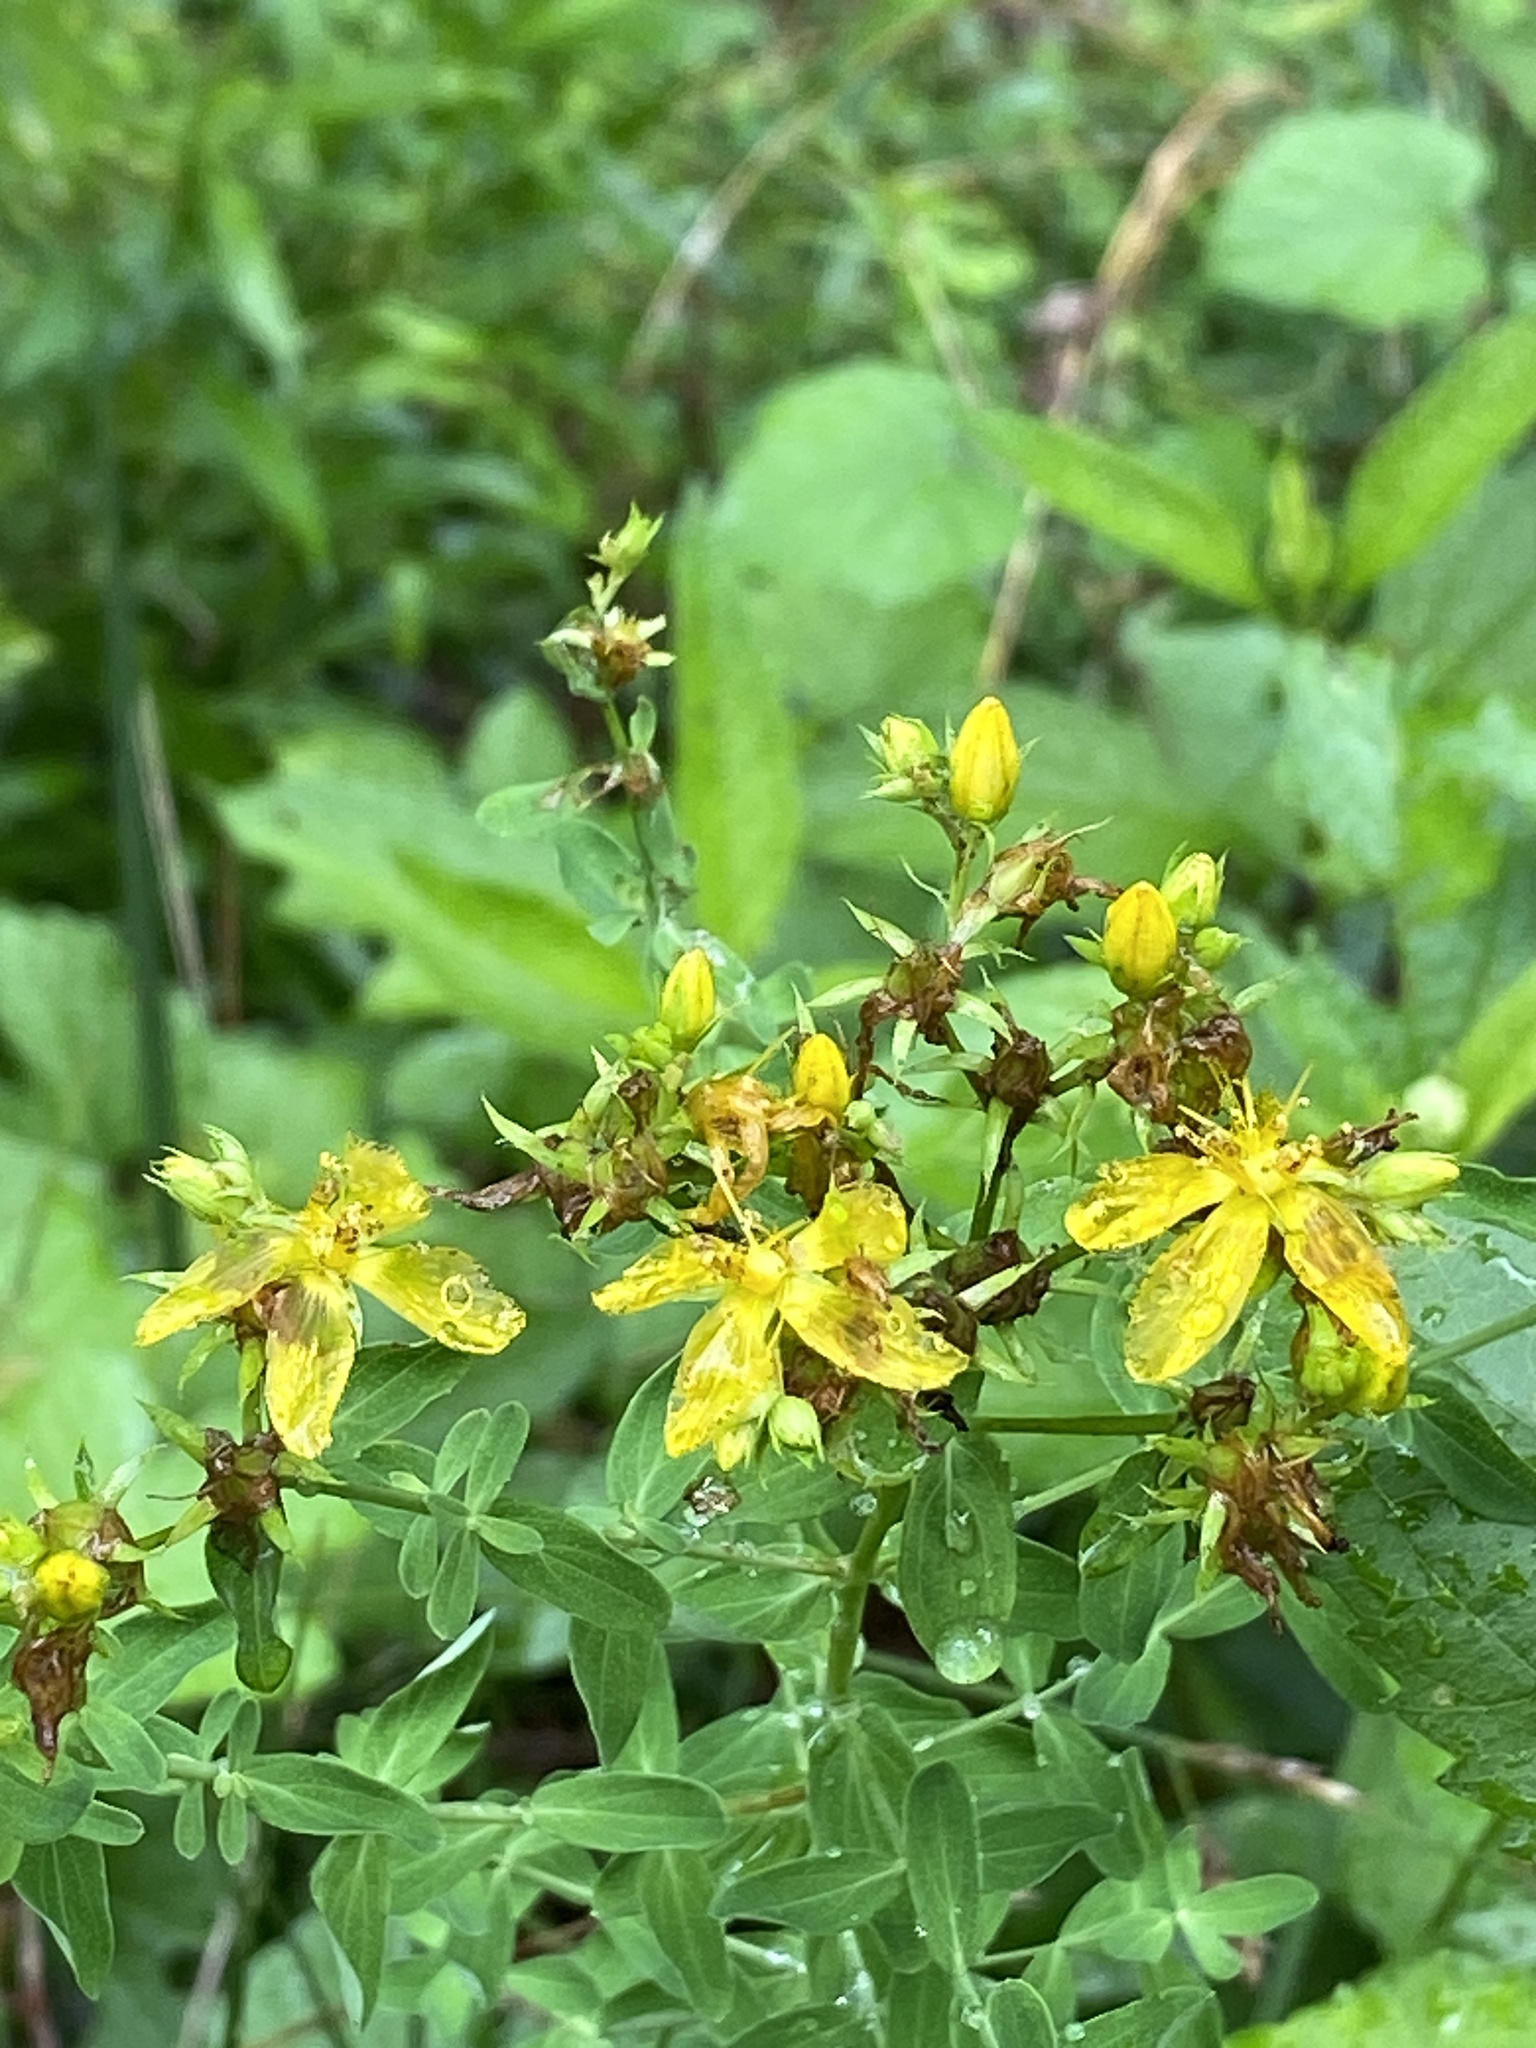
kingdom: Plantae
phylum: Tracheophyta
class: Magnoliopsida
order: Malpighiales
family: Hypericaceae
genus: Hypericum
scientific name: Hypericum perforatum
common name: Common st. johnswort
